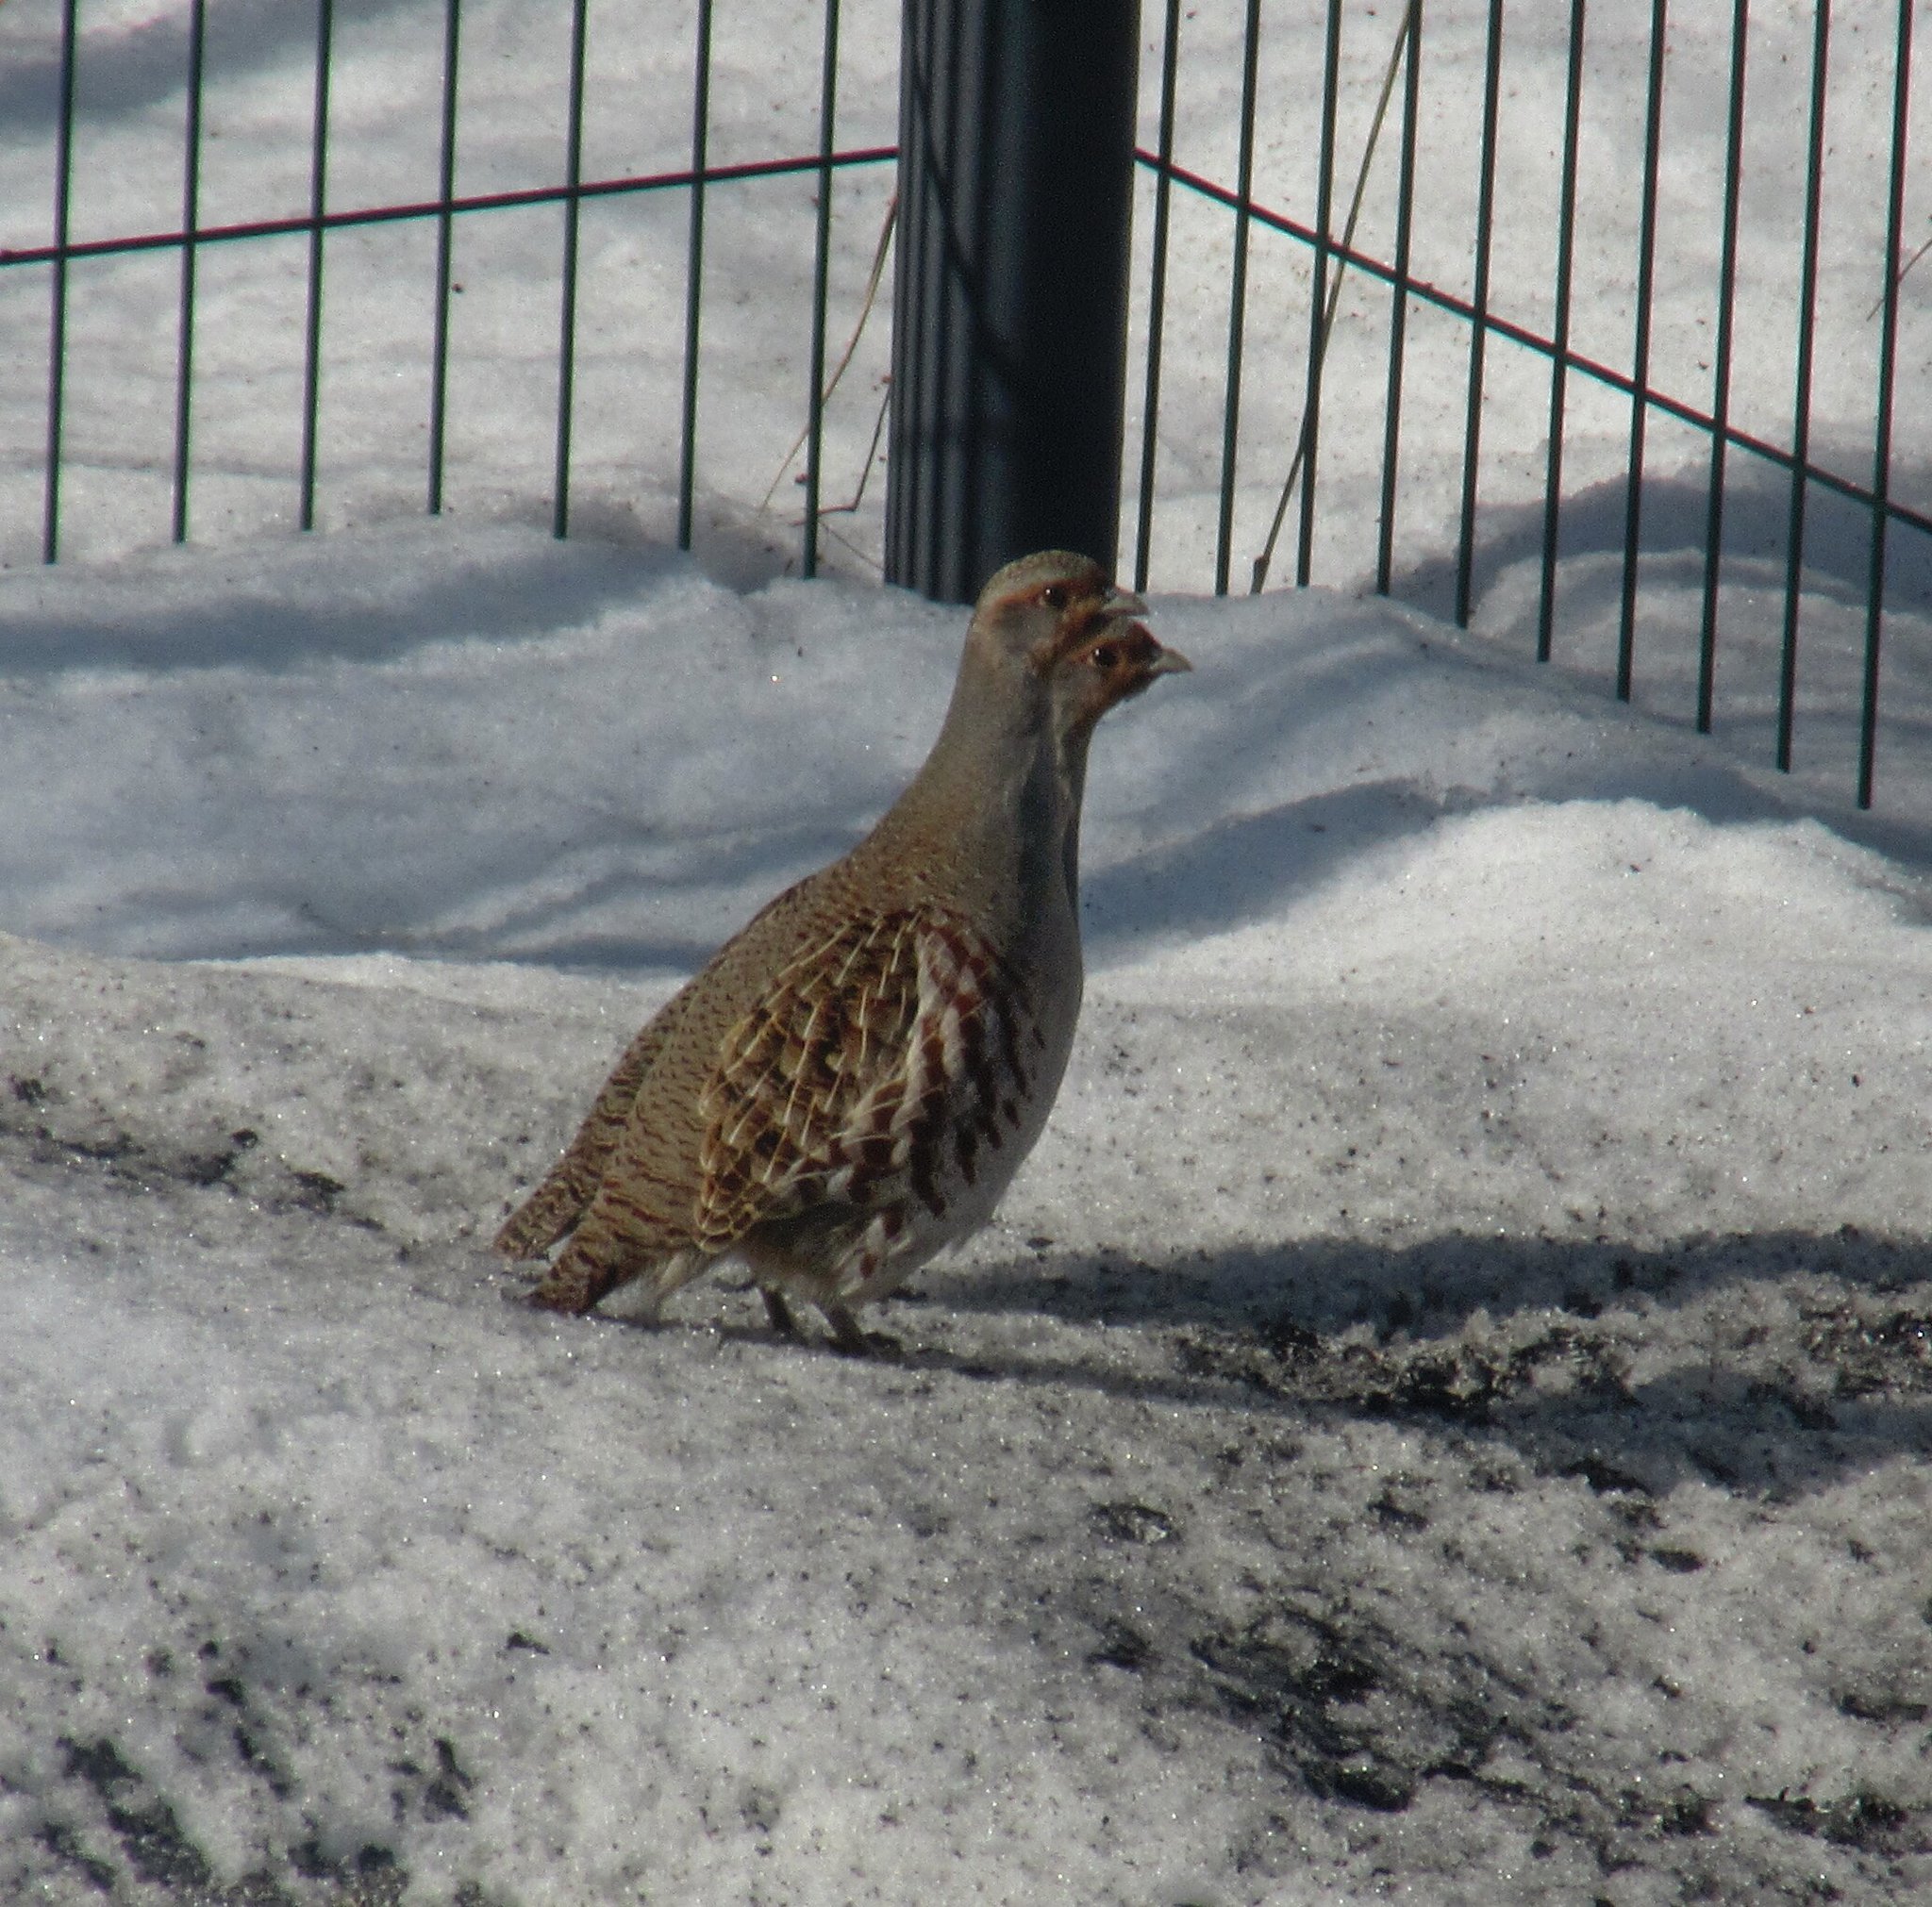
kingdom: Animalia
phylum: Chordata
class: Aves
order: Galliformes
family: Phasianidae
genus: Perdix
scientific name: Perdix perdix
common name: Grey partridge
